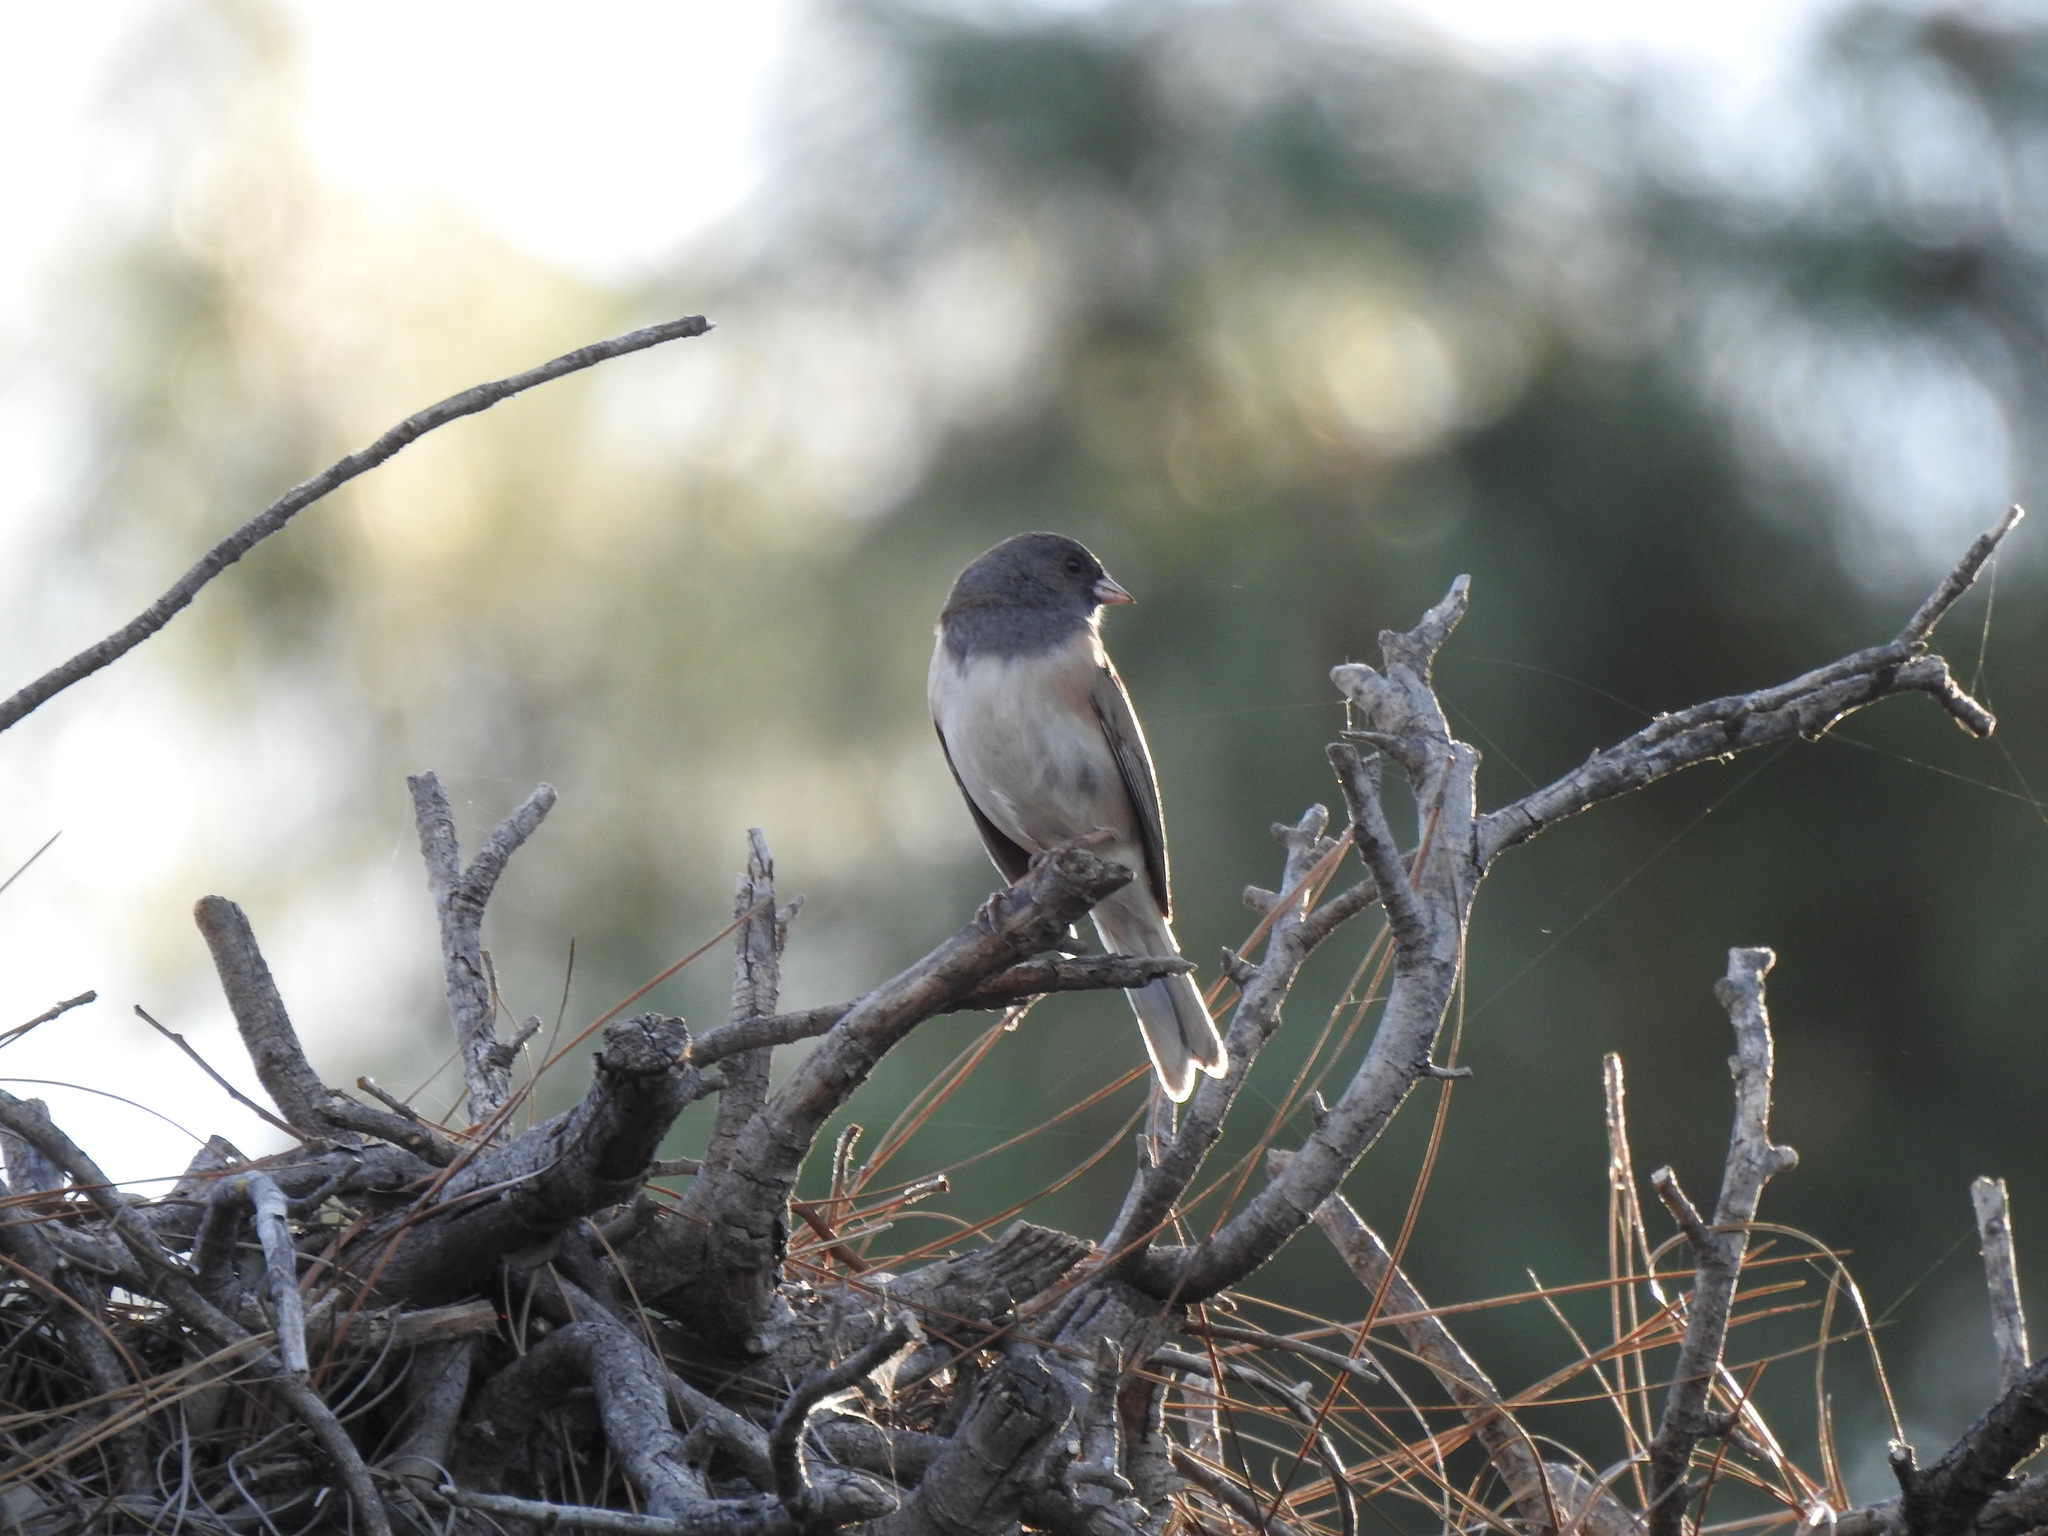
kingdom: Animalia
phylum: Chordata
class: Aves
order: Passeriformes
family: Passerellidae
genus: Junco
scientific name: Junco hyemalis
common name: Dark-eyed junco
